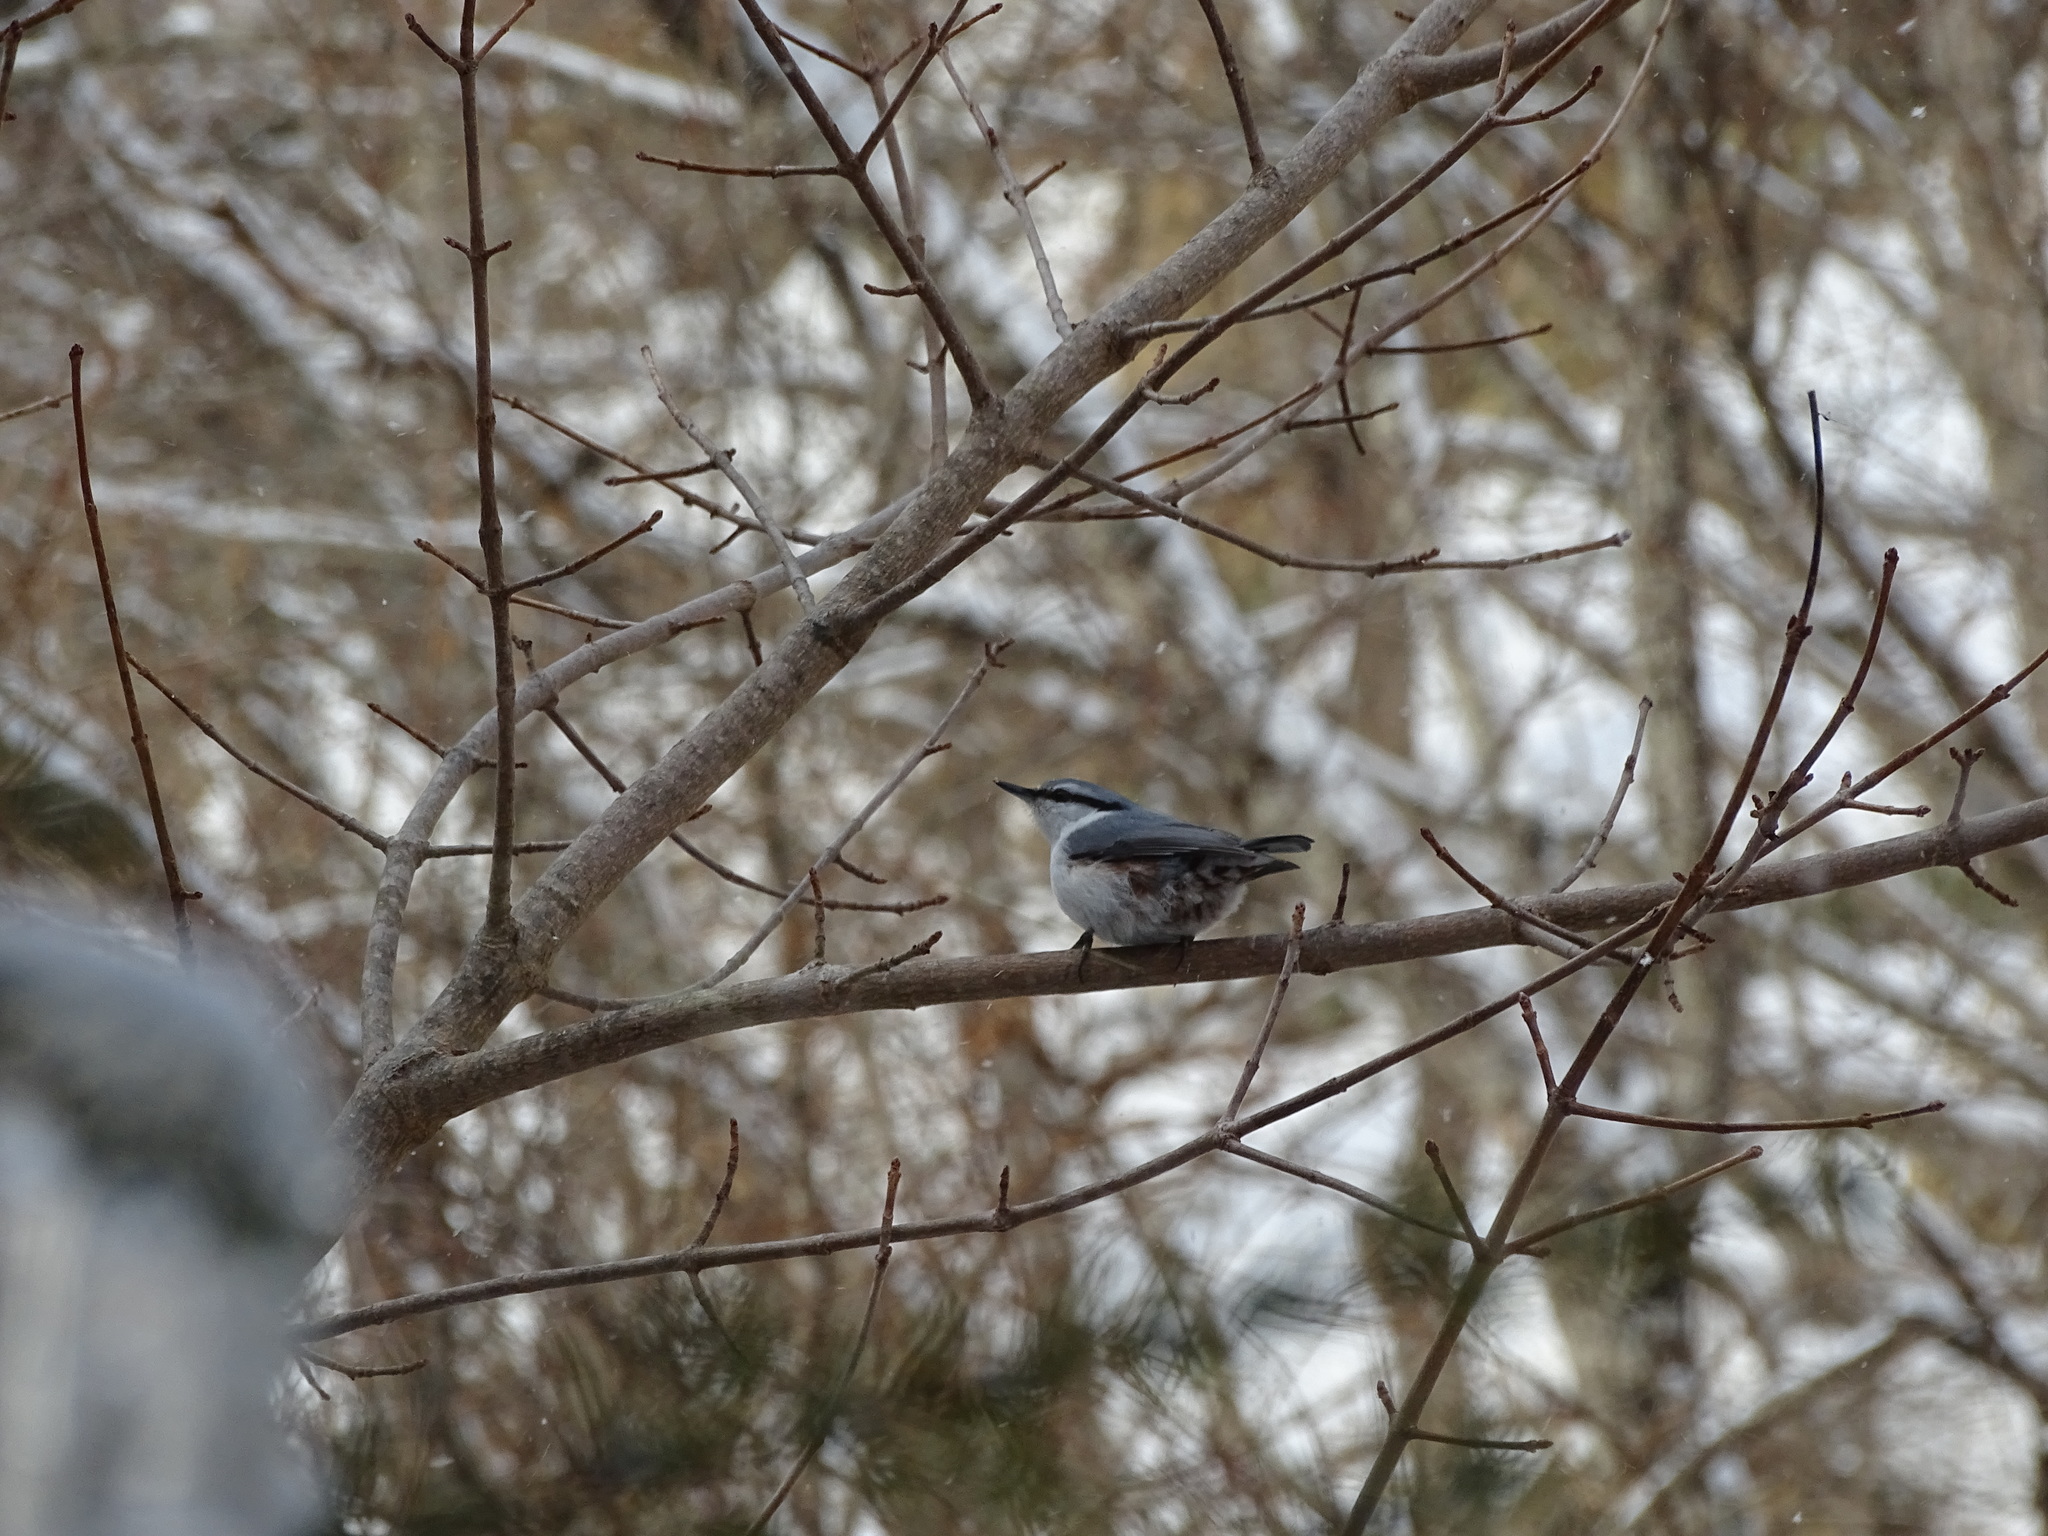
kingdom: Animalia
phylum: Chordata
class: Aves
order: Passeriformes
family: Sittidae
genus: Sitta
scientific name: Sitta europaea
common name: Eurasian nuthatch
